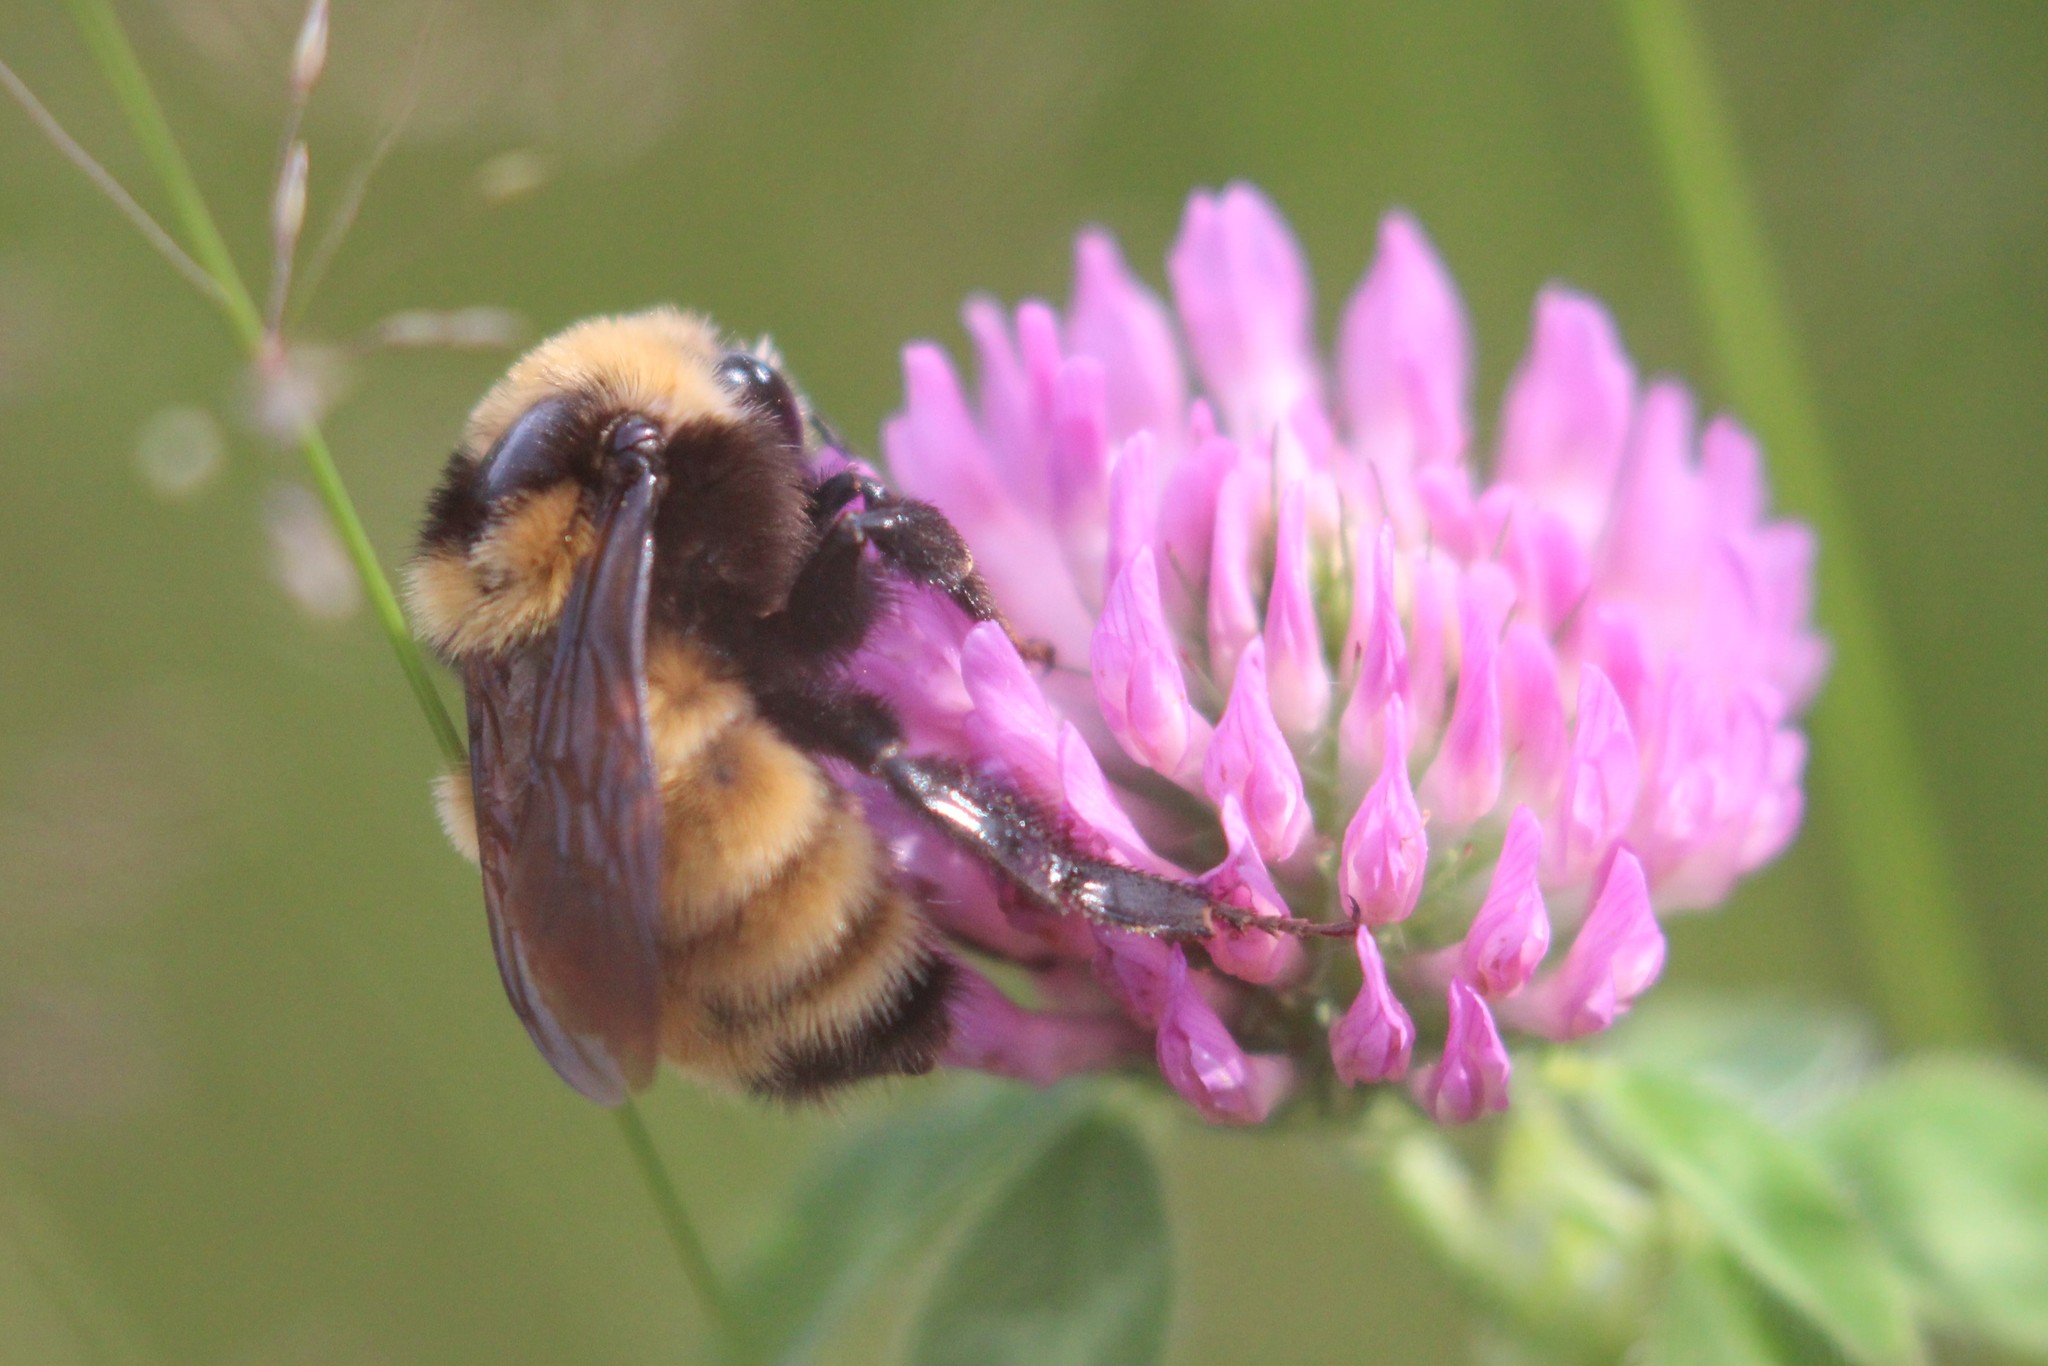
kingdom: Animalia
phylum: Arthropoda
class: Insecta
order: Hymenoptera
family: Apidae
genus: Bombus
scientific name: Bombus borealis
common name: Northern amber bumble bee
